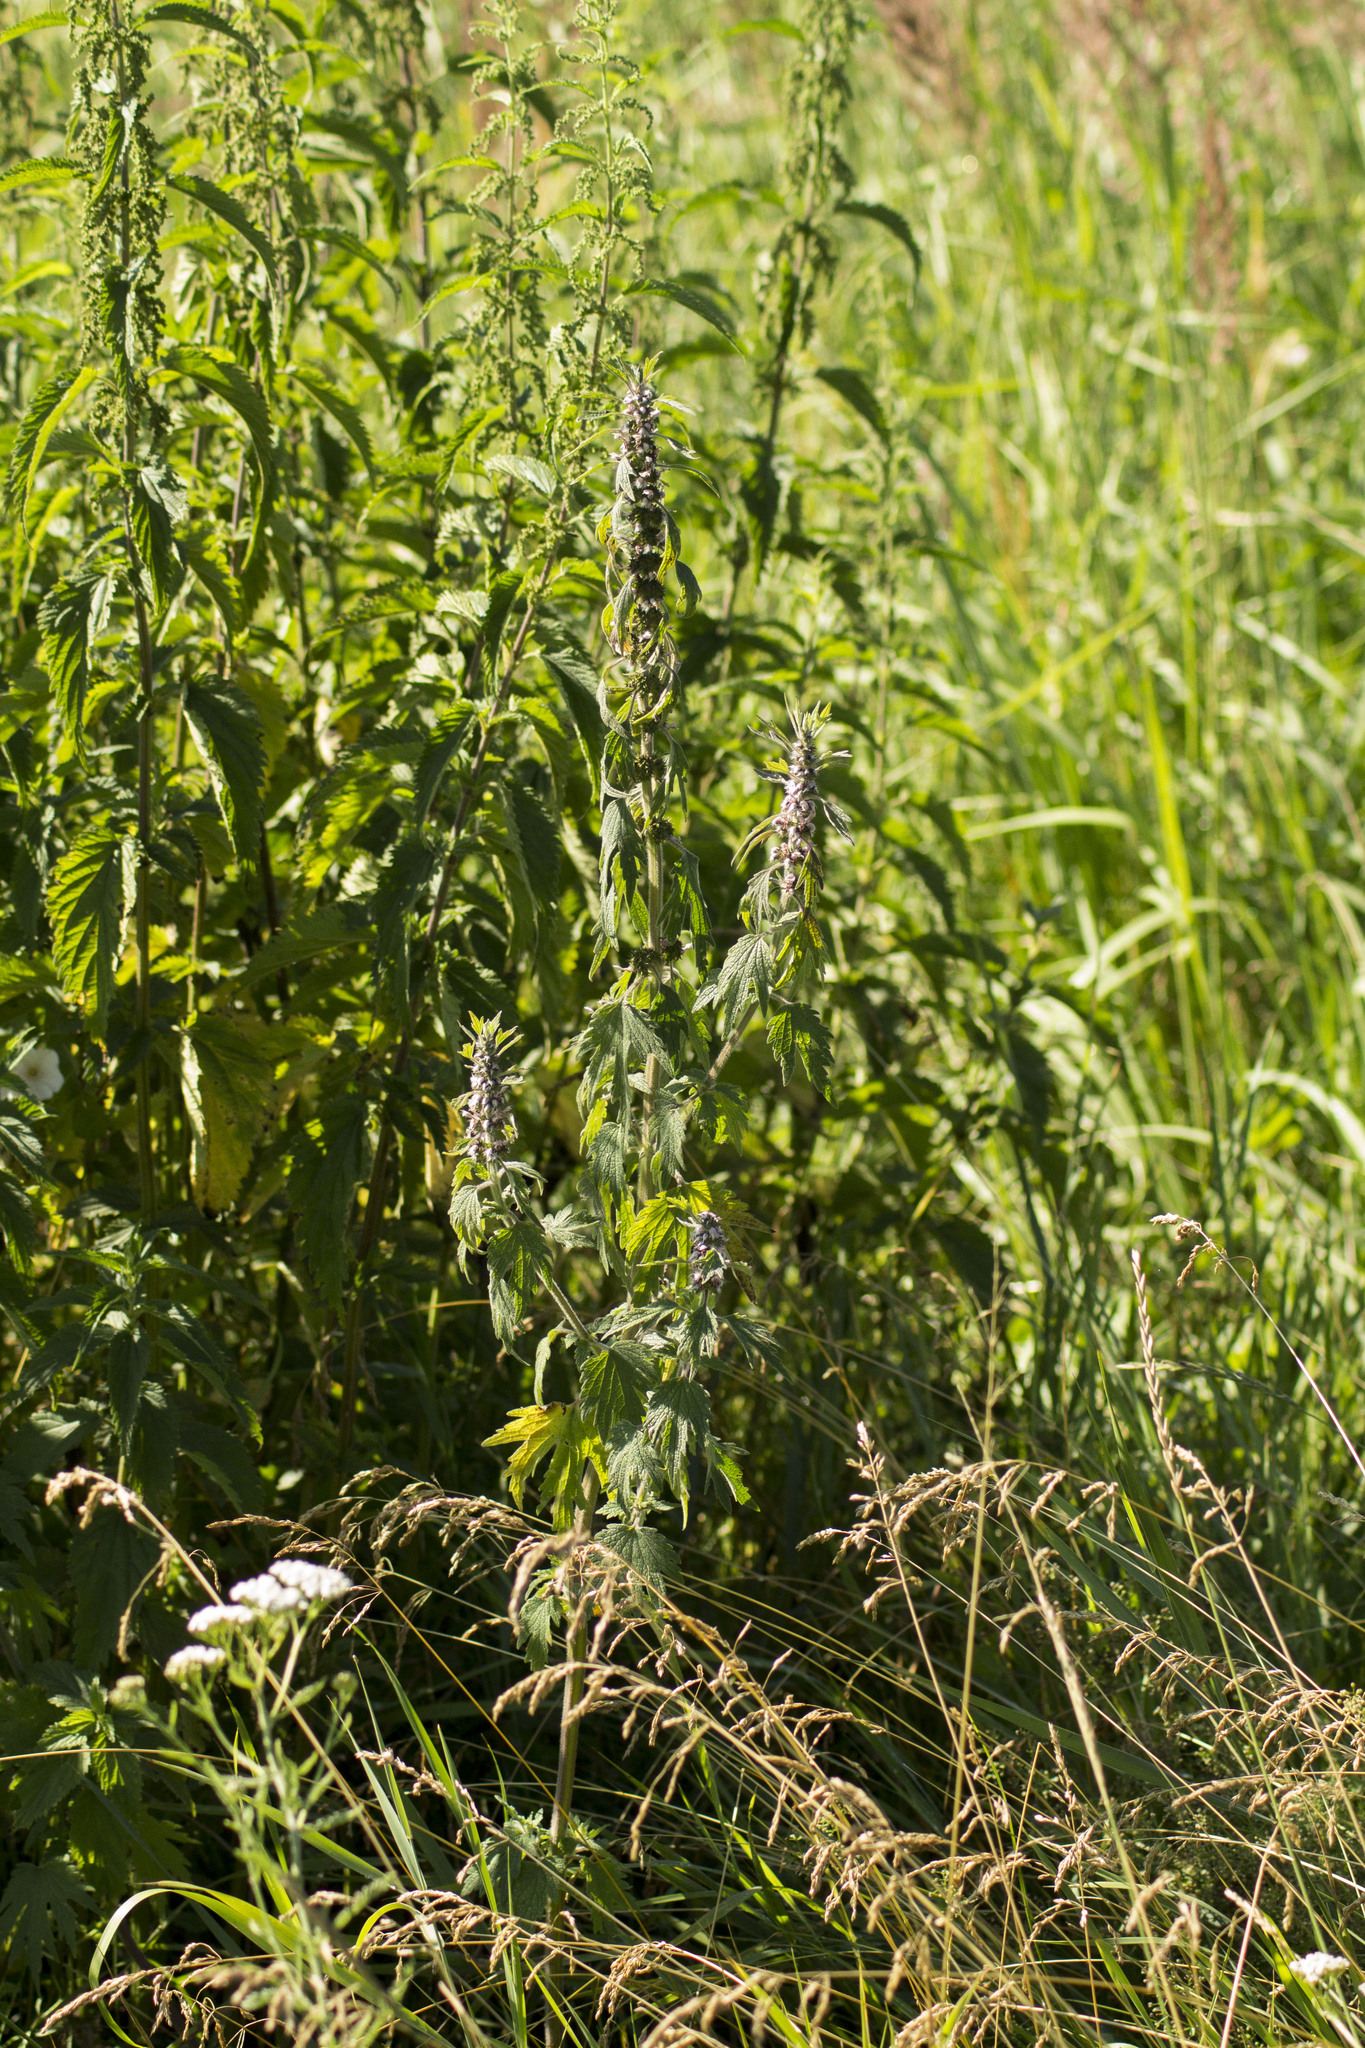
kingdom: Plantae
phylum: Tracheophyta
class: Magnoliopsida
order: Lamiales
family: Lamiaceae
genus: Leonurus
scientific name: Leonurus quinquelobatus
